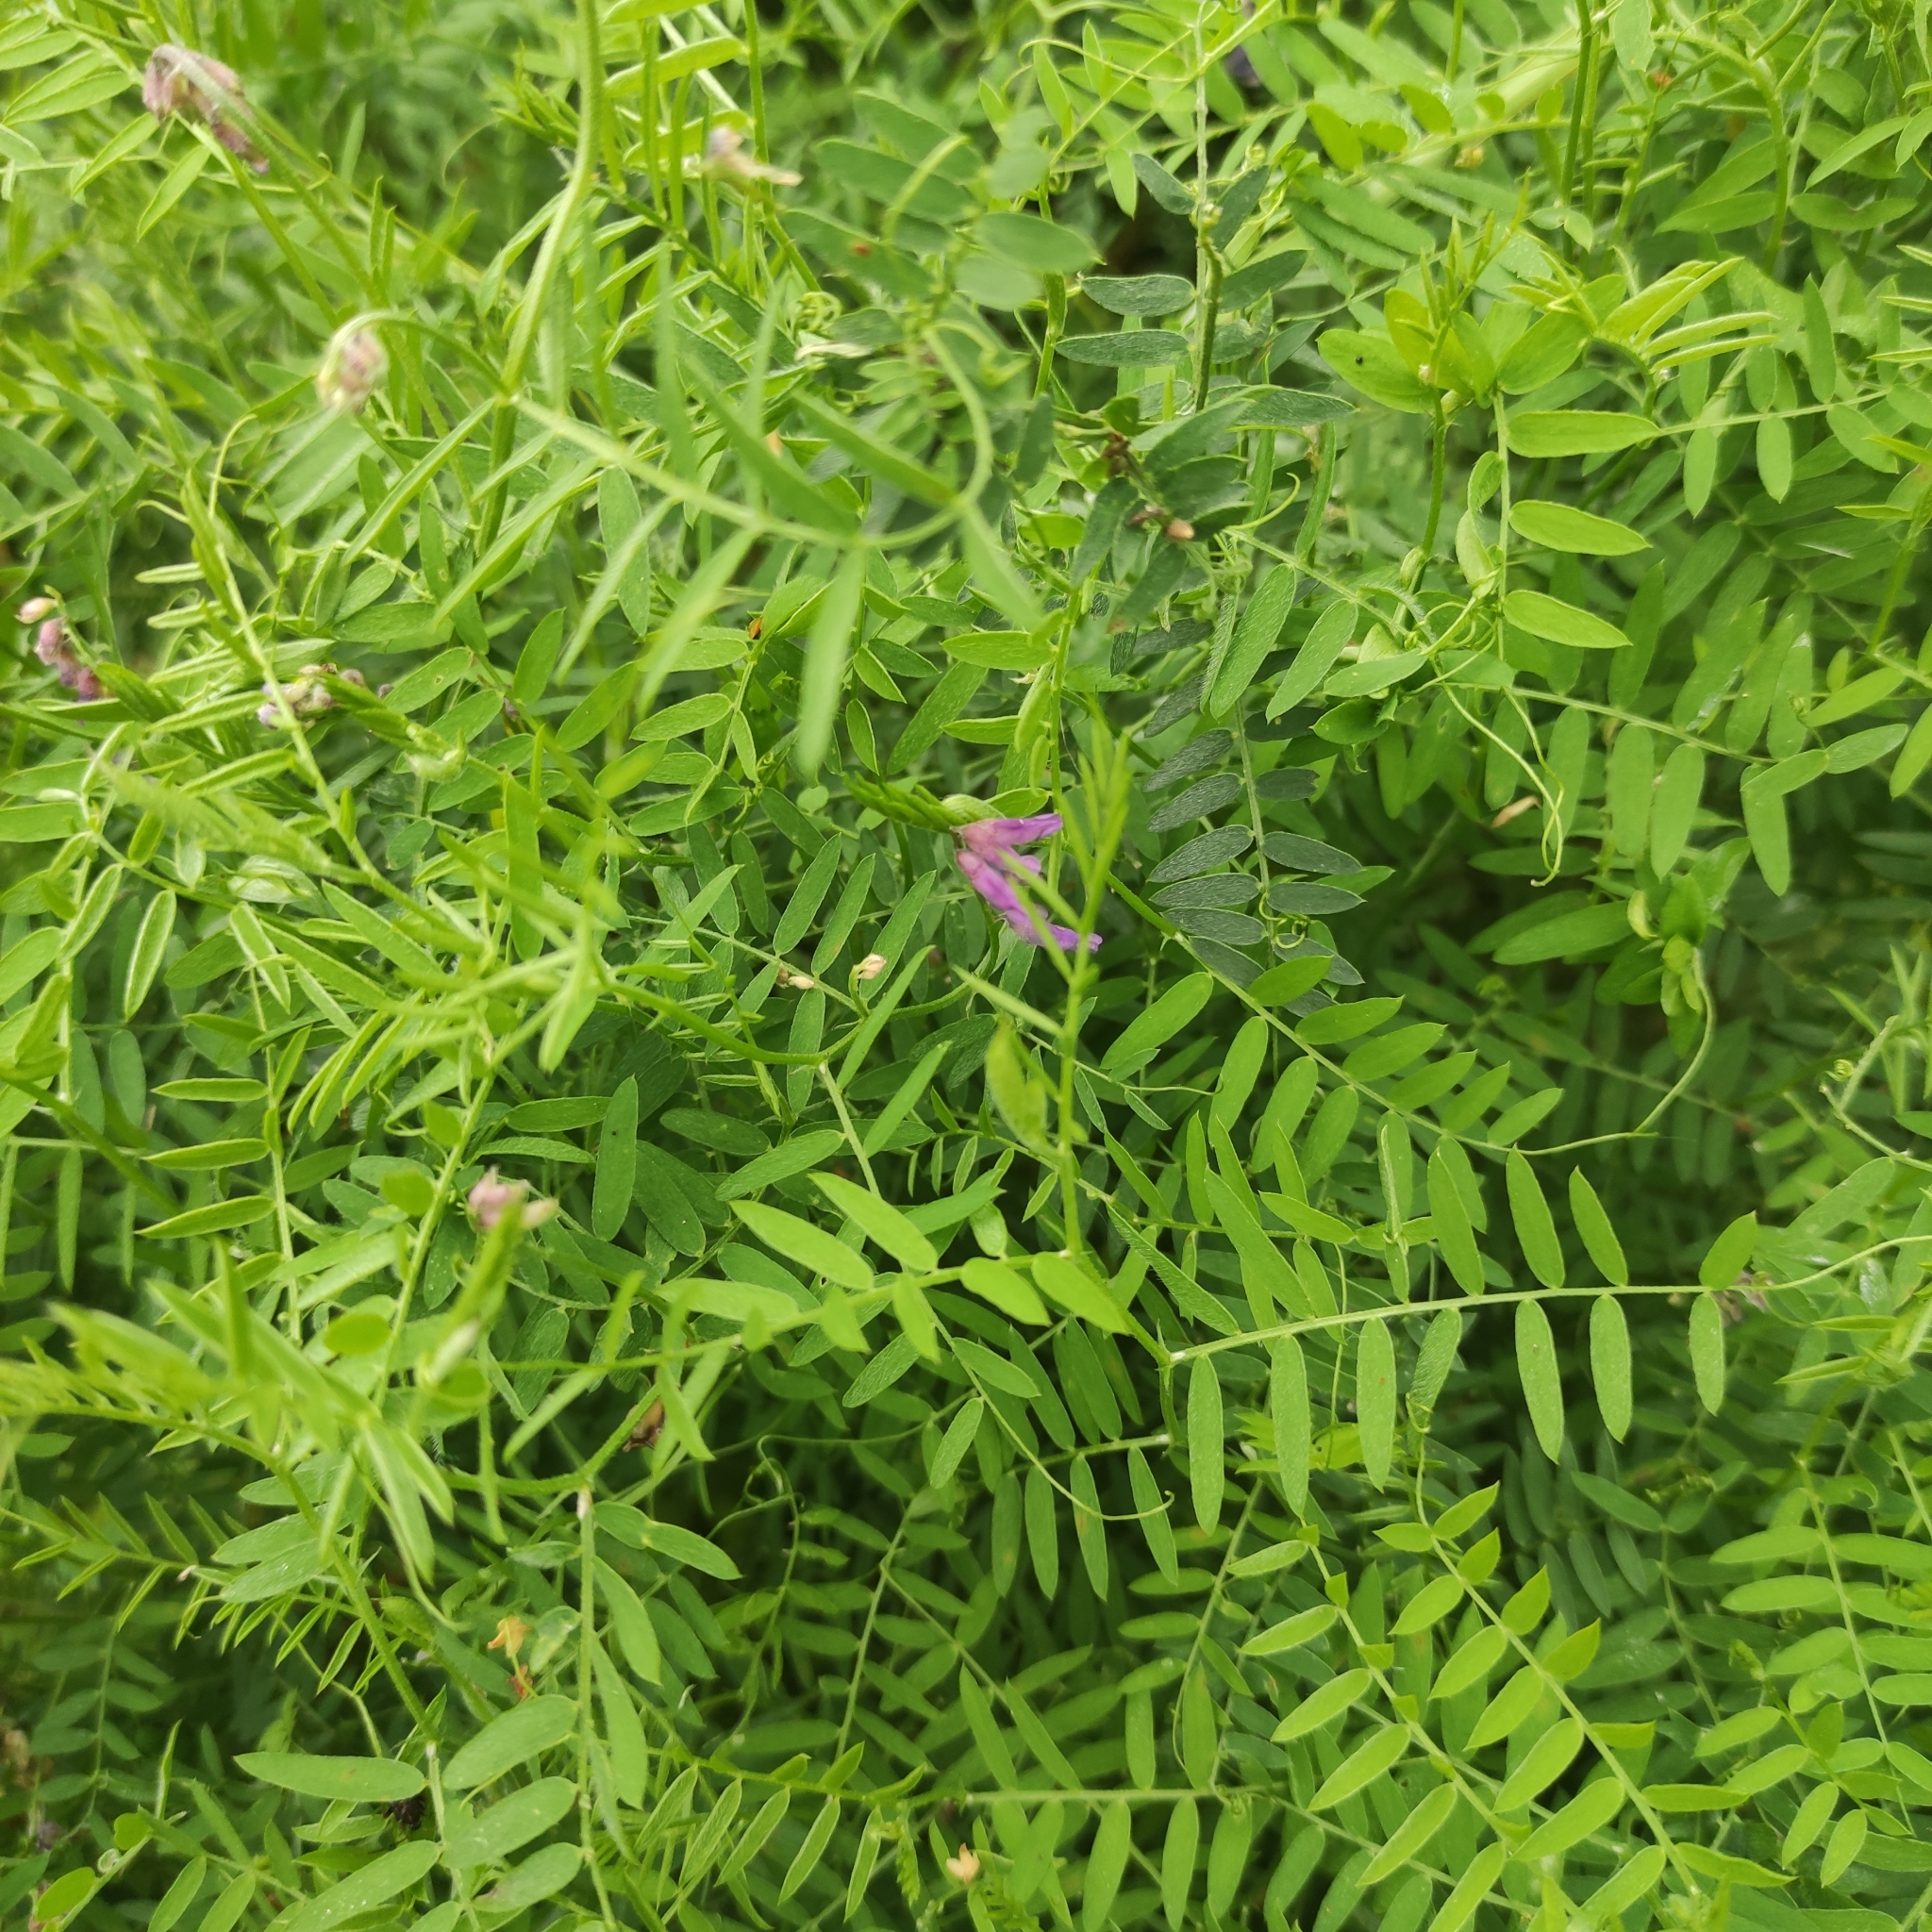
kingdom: Plantae
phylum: Tracheophyta
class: Magnoliopsida
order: Fabales
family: Fabaceae
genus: Vicia
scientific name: Vicia cracca
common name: Bird vetch
